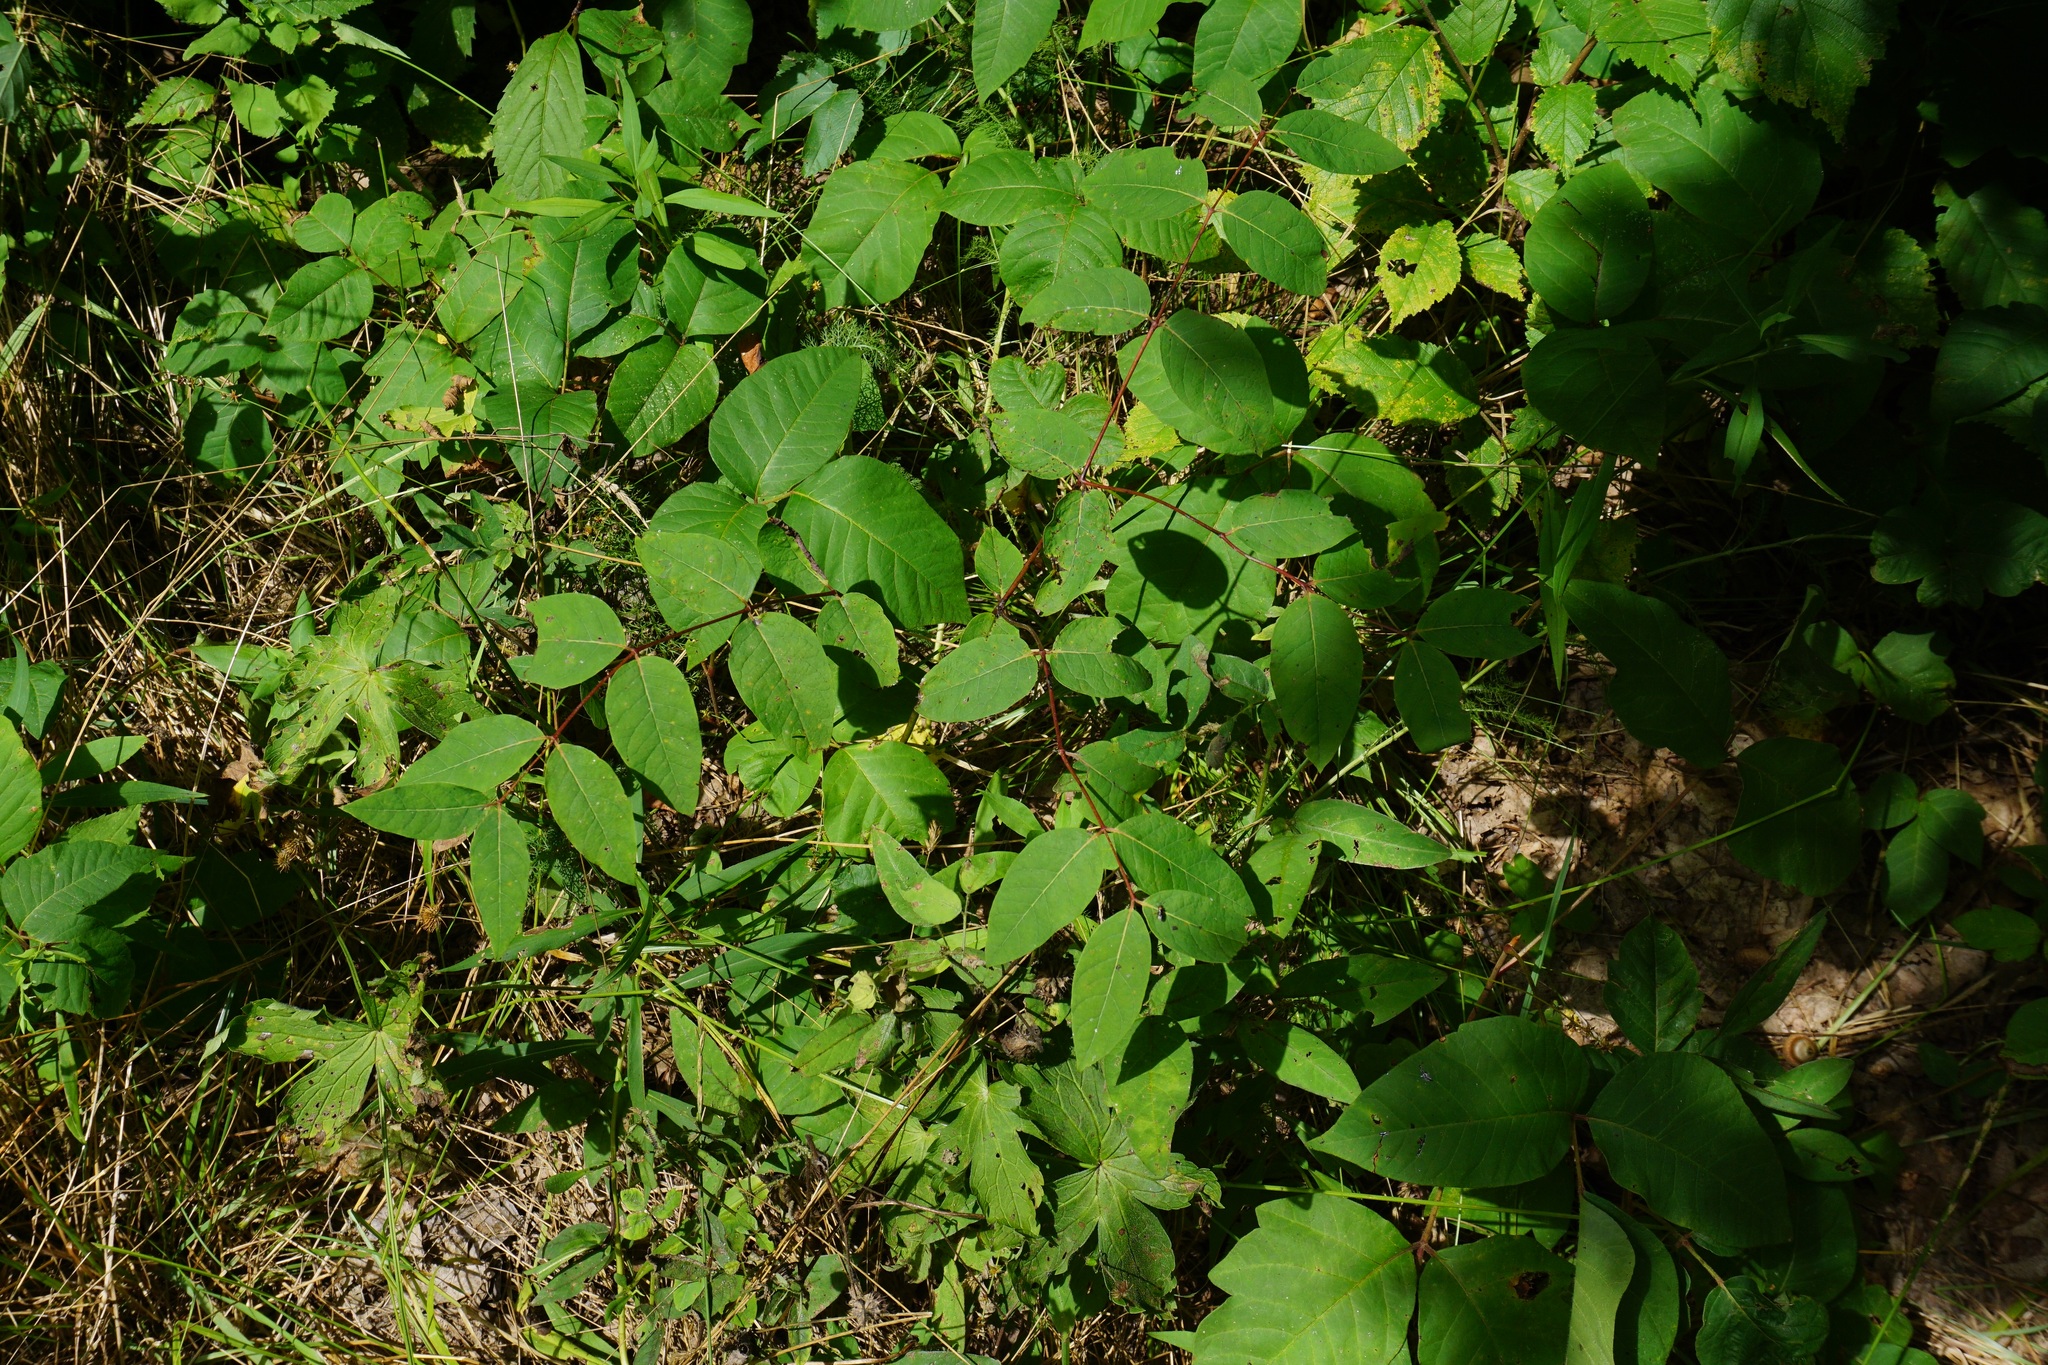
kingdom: Plantae
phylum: Tracheophyta
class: Magnoliopsida
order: Gentianales
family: Apocynaceae
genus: Apocynum
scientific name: Apocynum androsaemifolium
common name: Spreading dogbane
